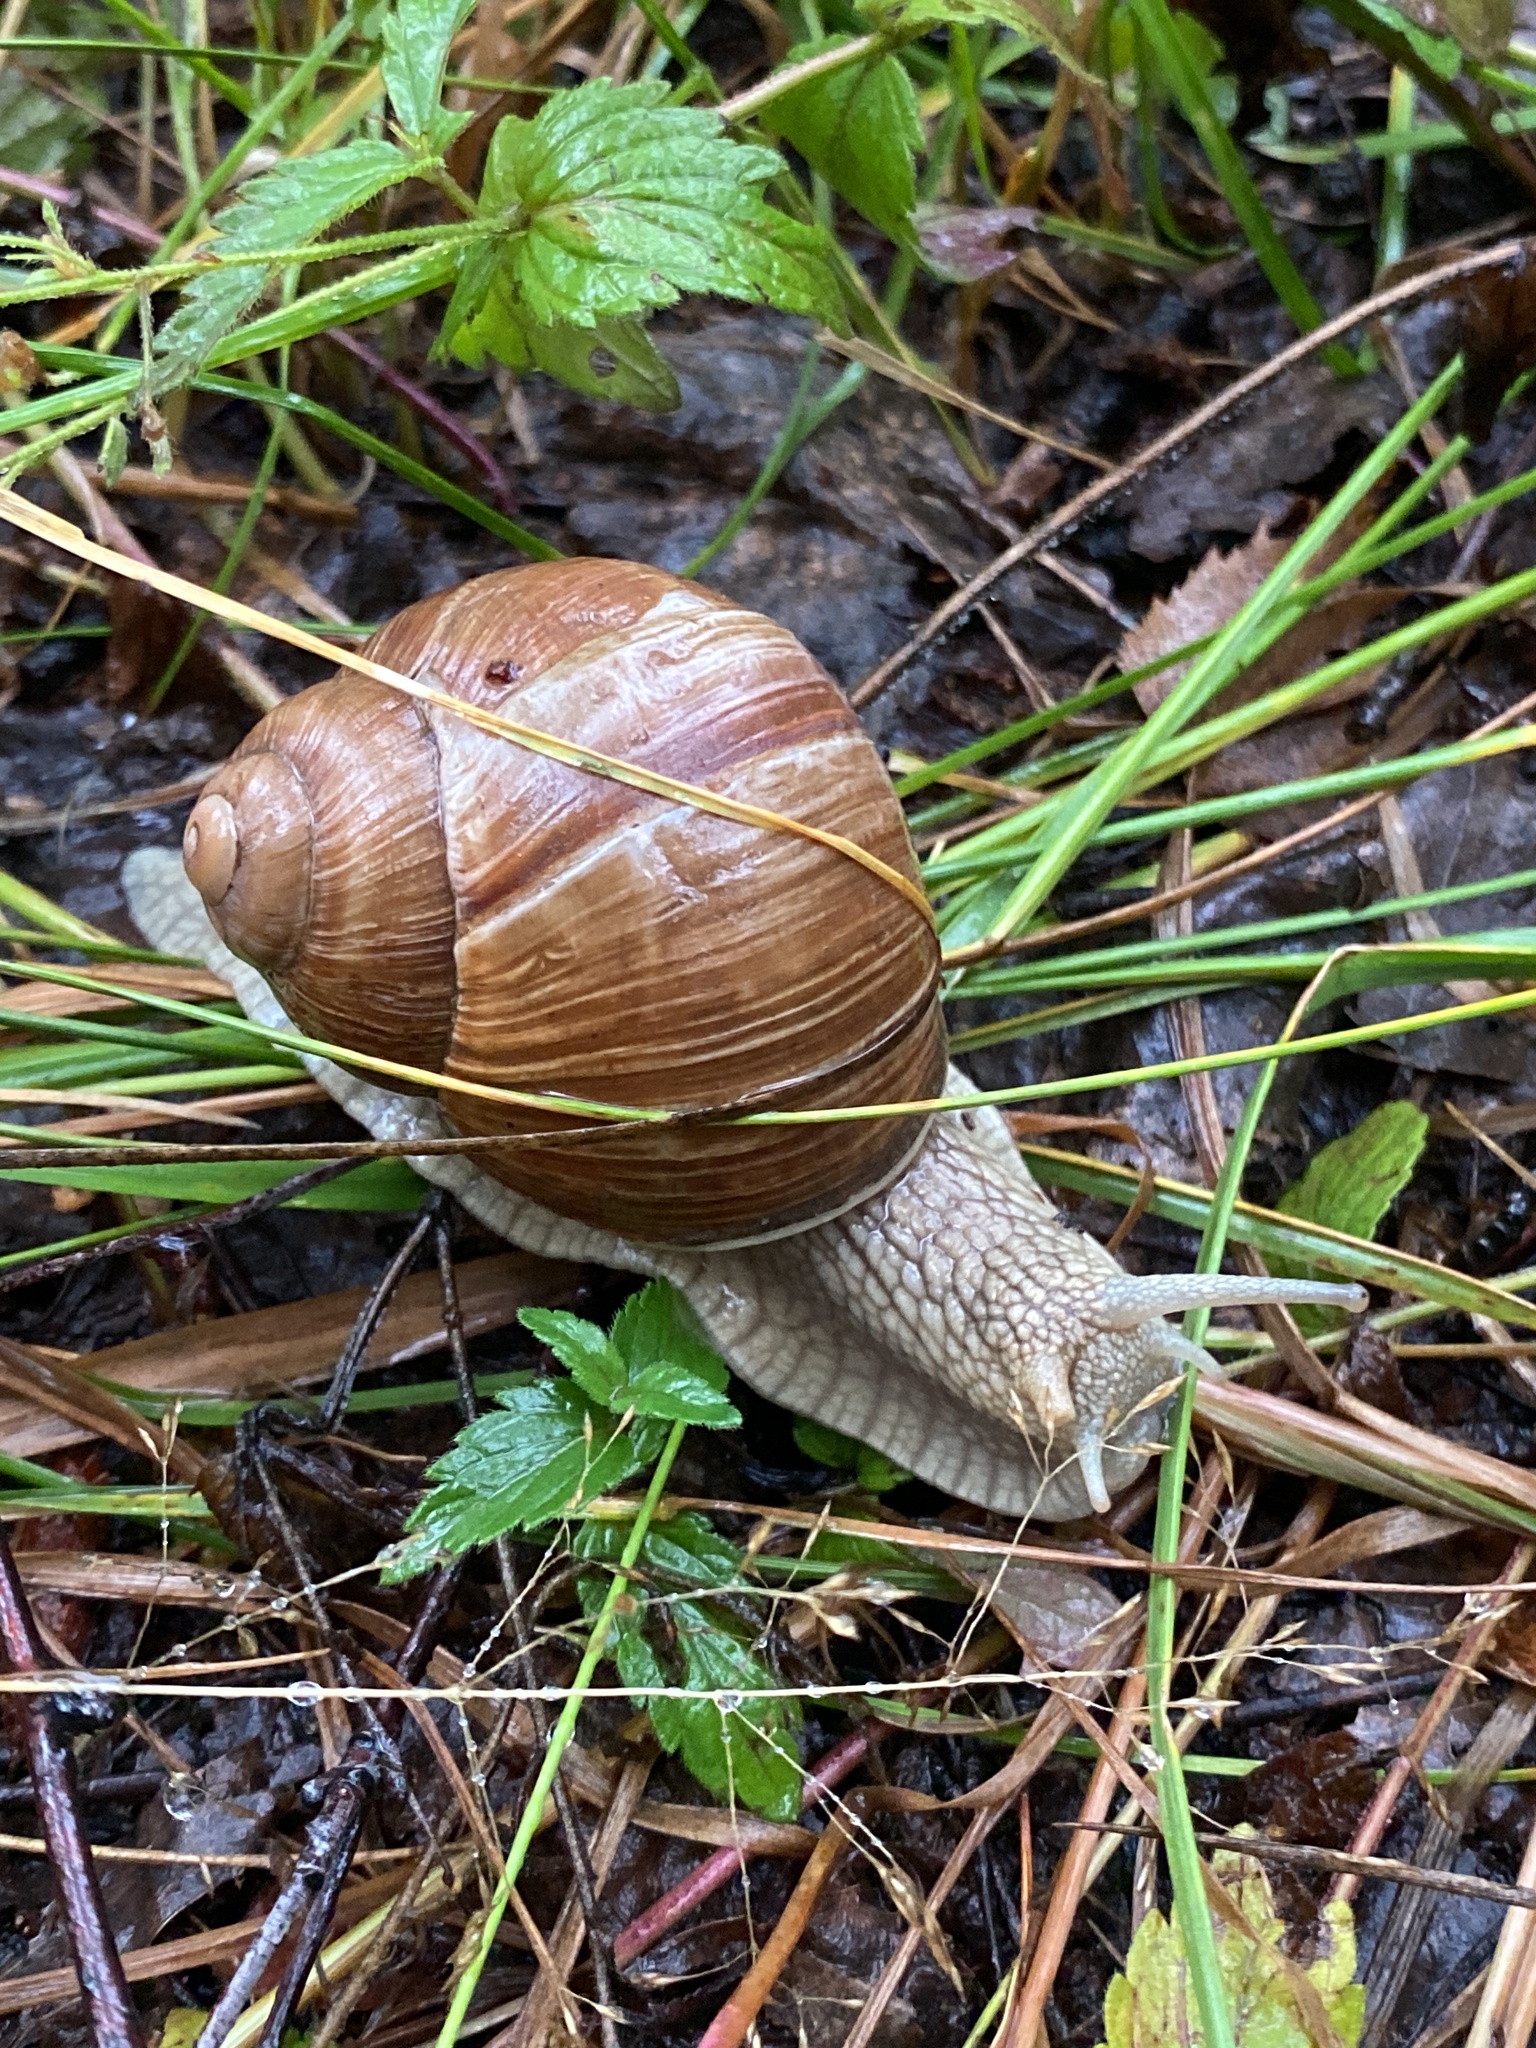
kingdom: Animalia
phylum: Mollusca
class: Gastropoda
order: Stylommatophora
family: Helicidae
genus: Helix
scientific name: Helix pomatia
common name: Roman snail
